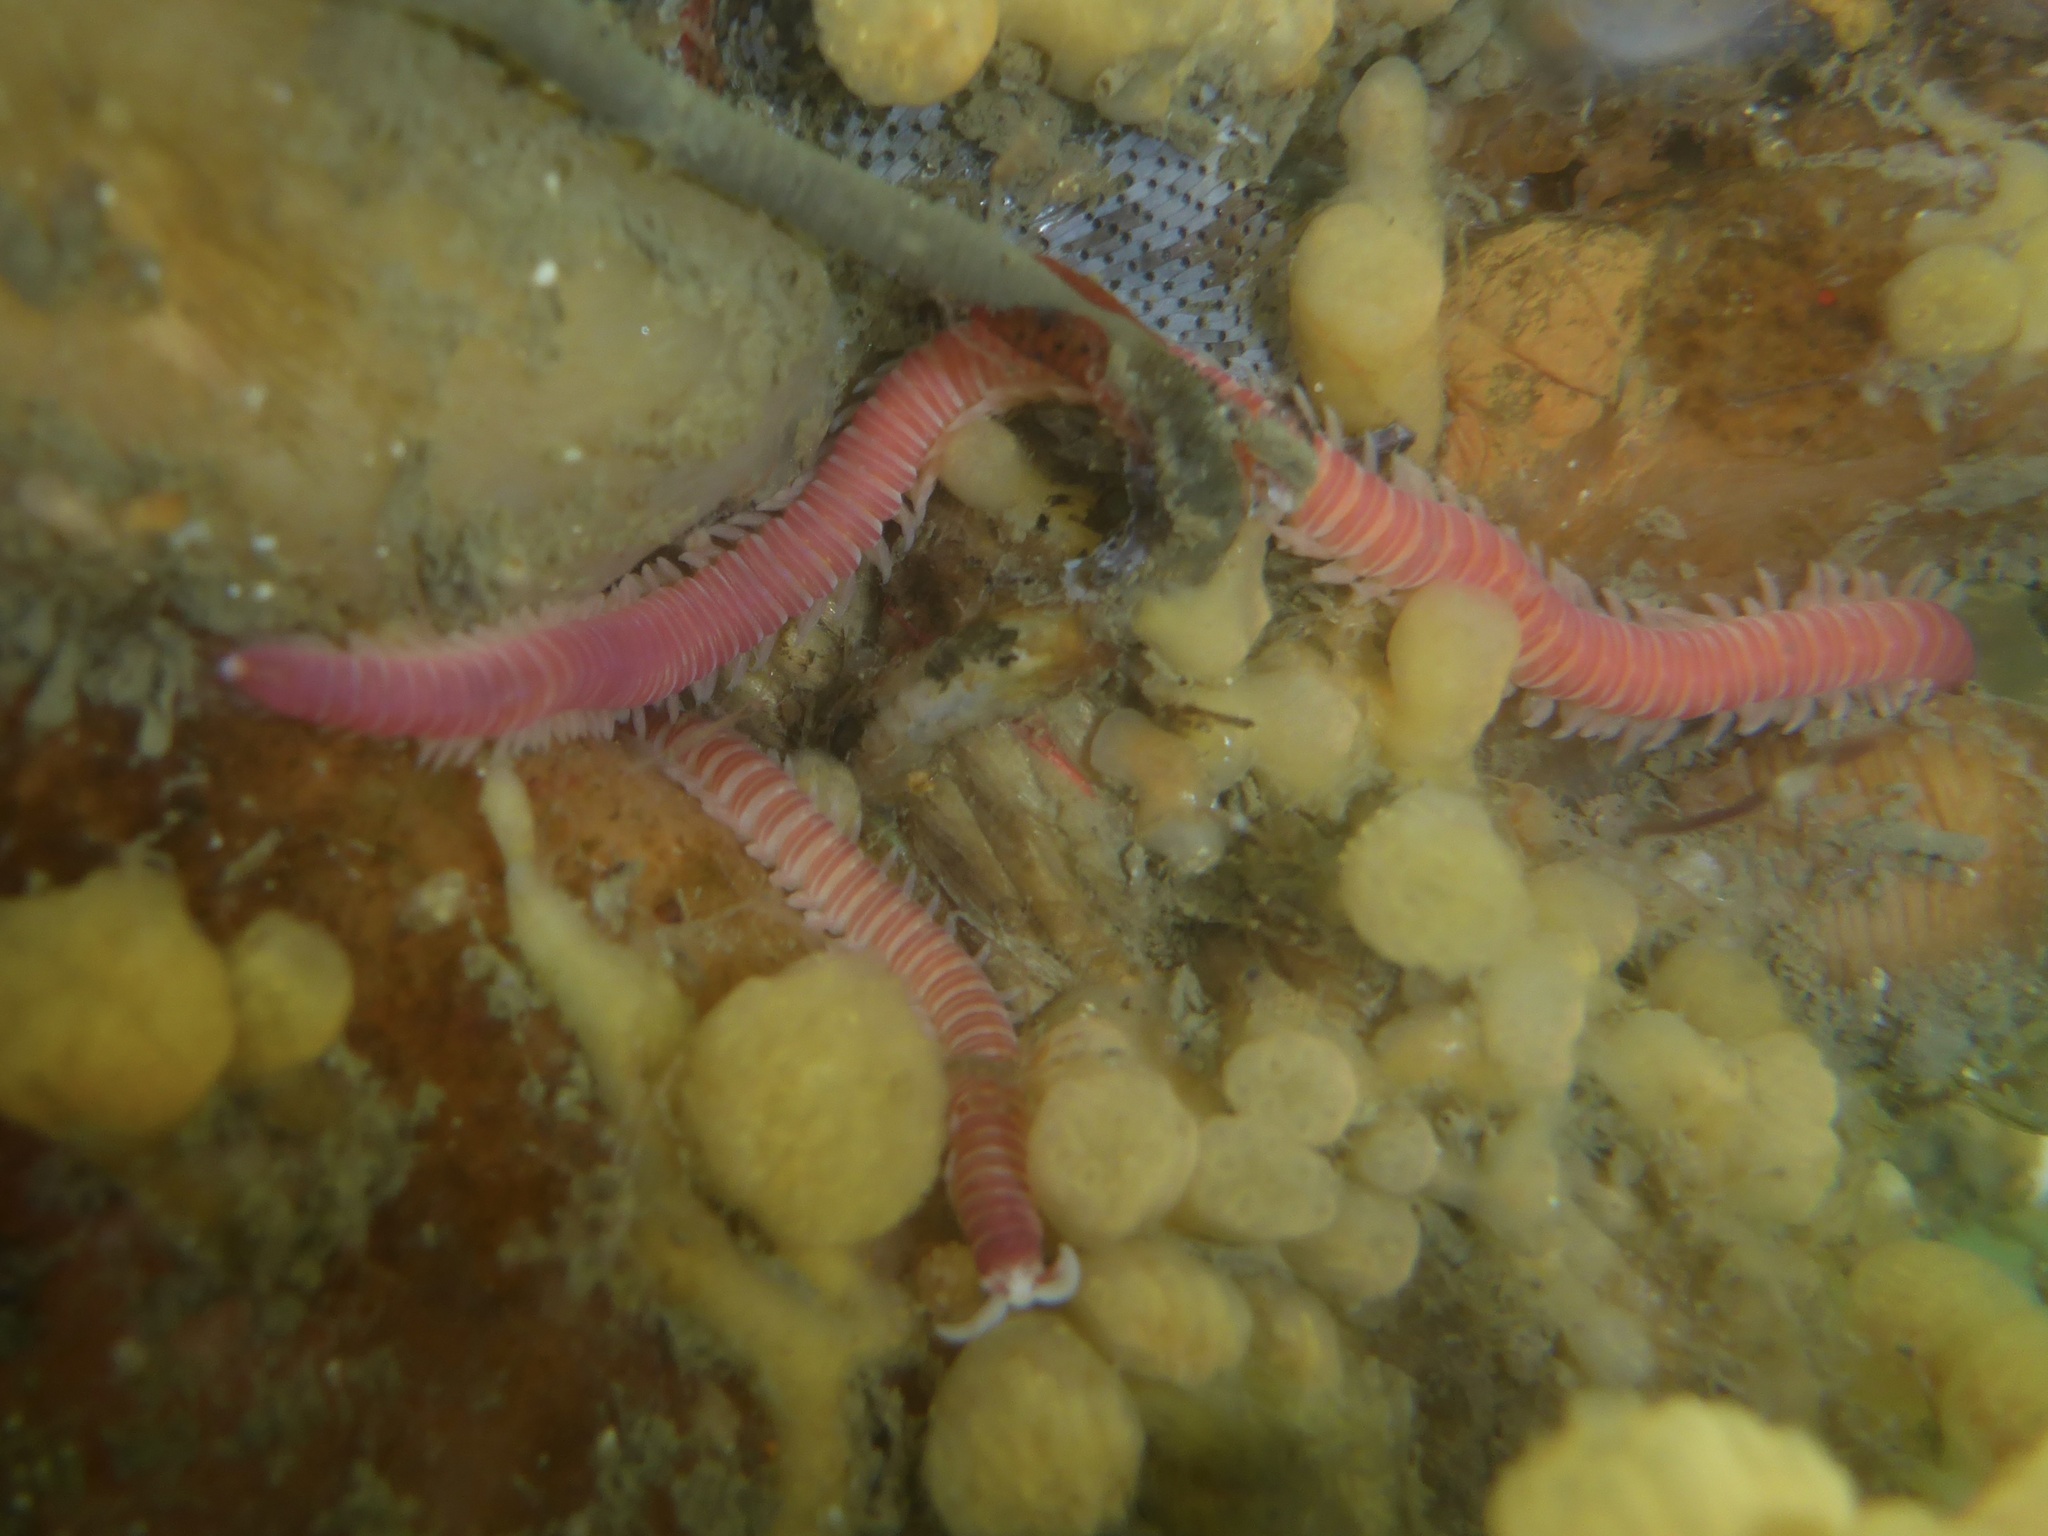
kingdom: Animalia
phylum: Annelida
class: Polychaeta
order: Eunicida
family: Dorvilleidae
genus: Dorvillea
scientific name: Dorvillea moniloceras
